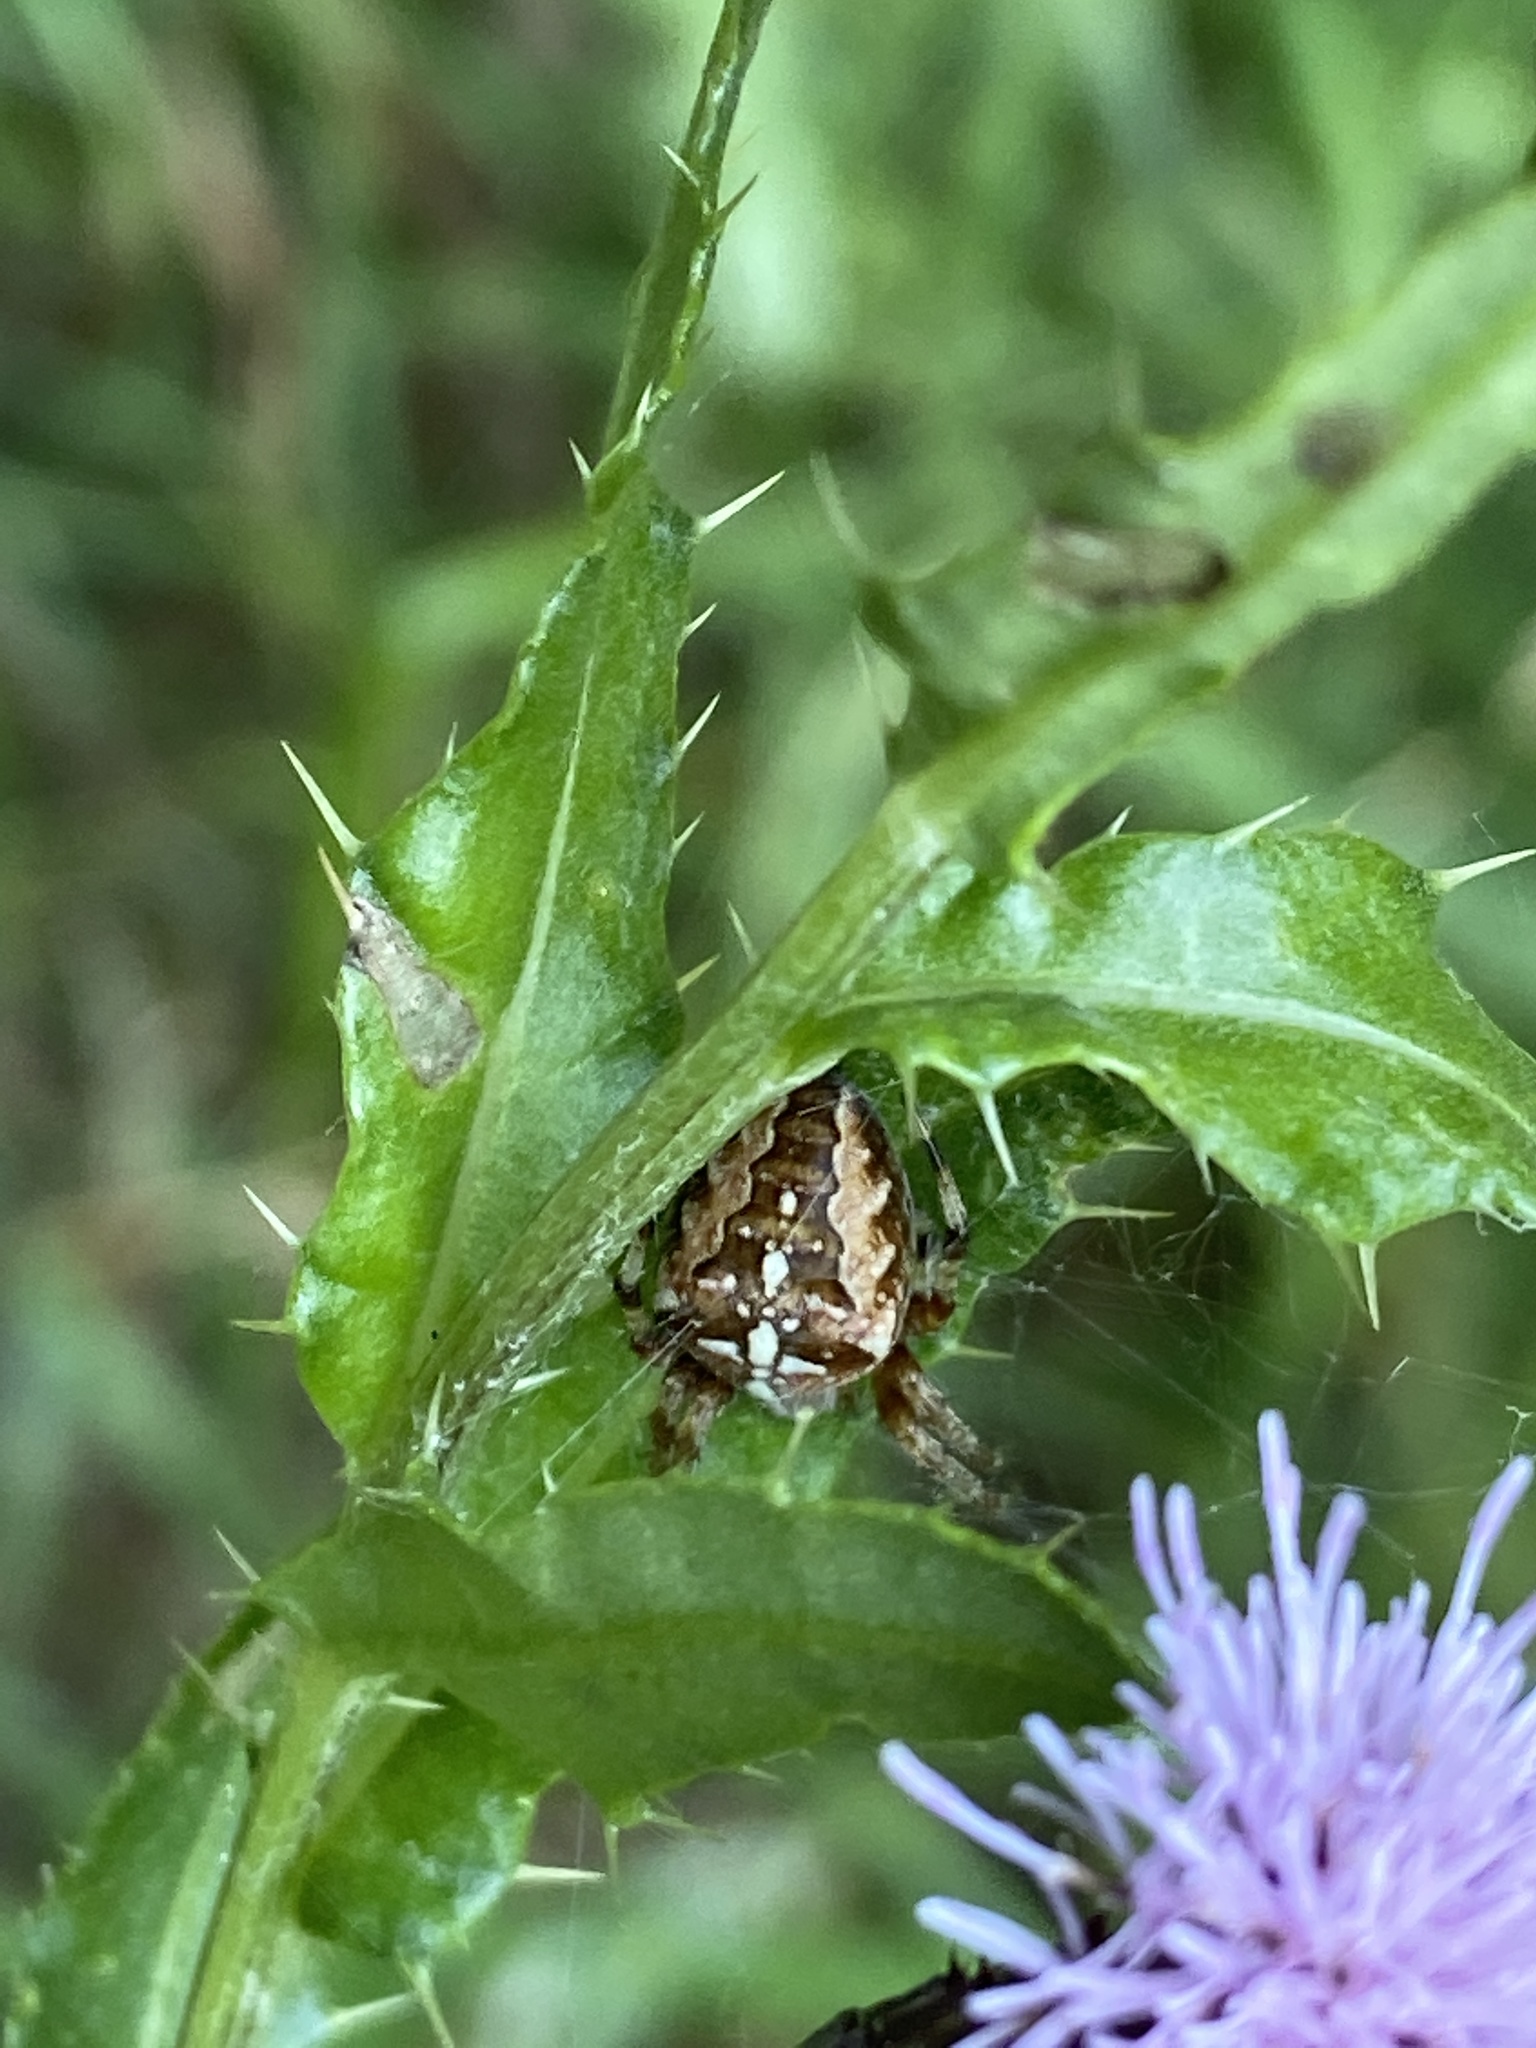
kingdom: Animalia
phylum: Arthropoda
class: Arachnida
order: Araneae
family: Araneidae
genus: Araneus
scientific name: Araneus diadematus
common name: Cross orbweaver
